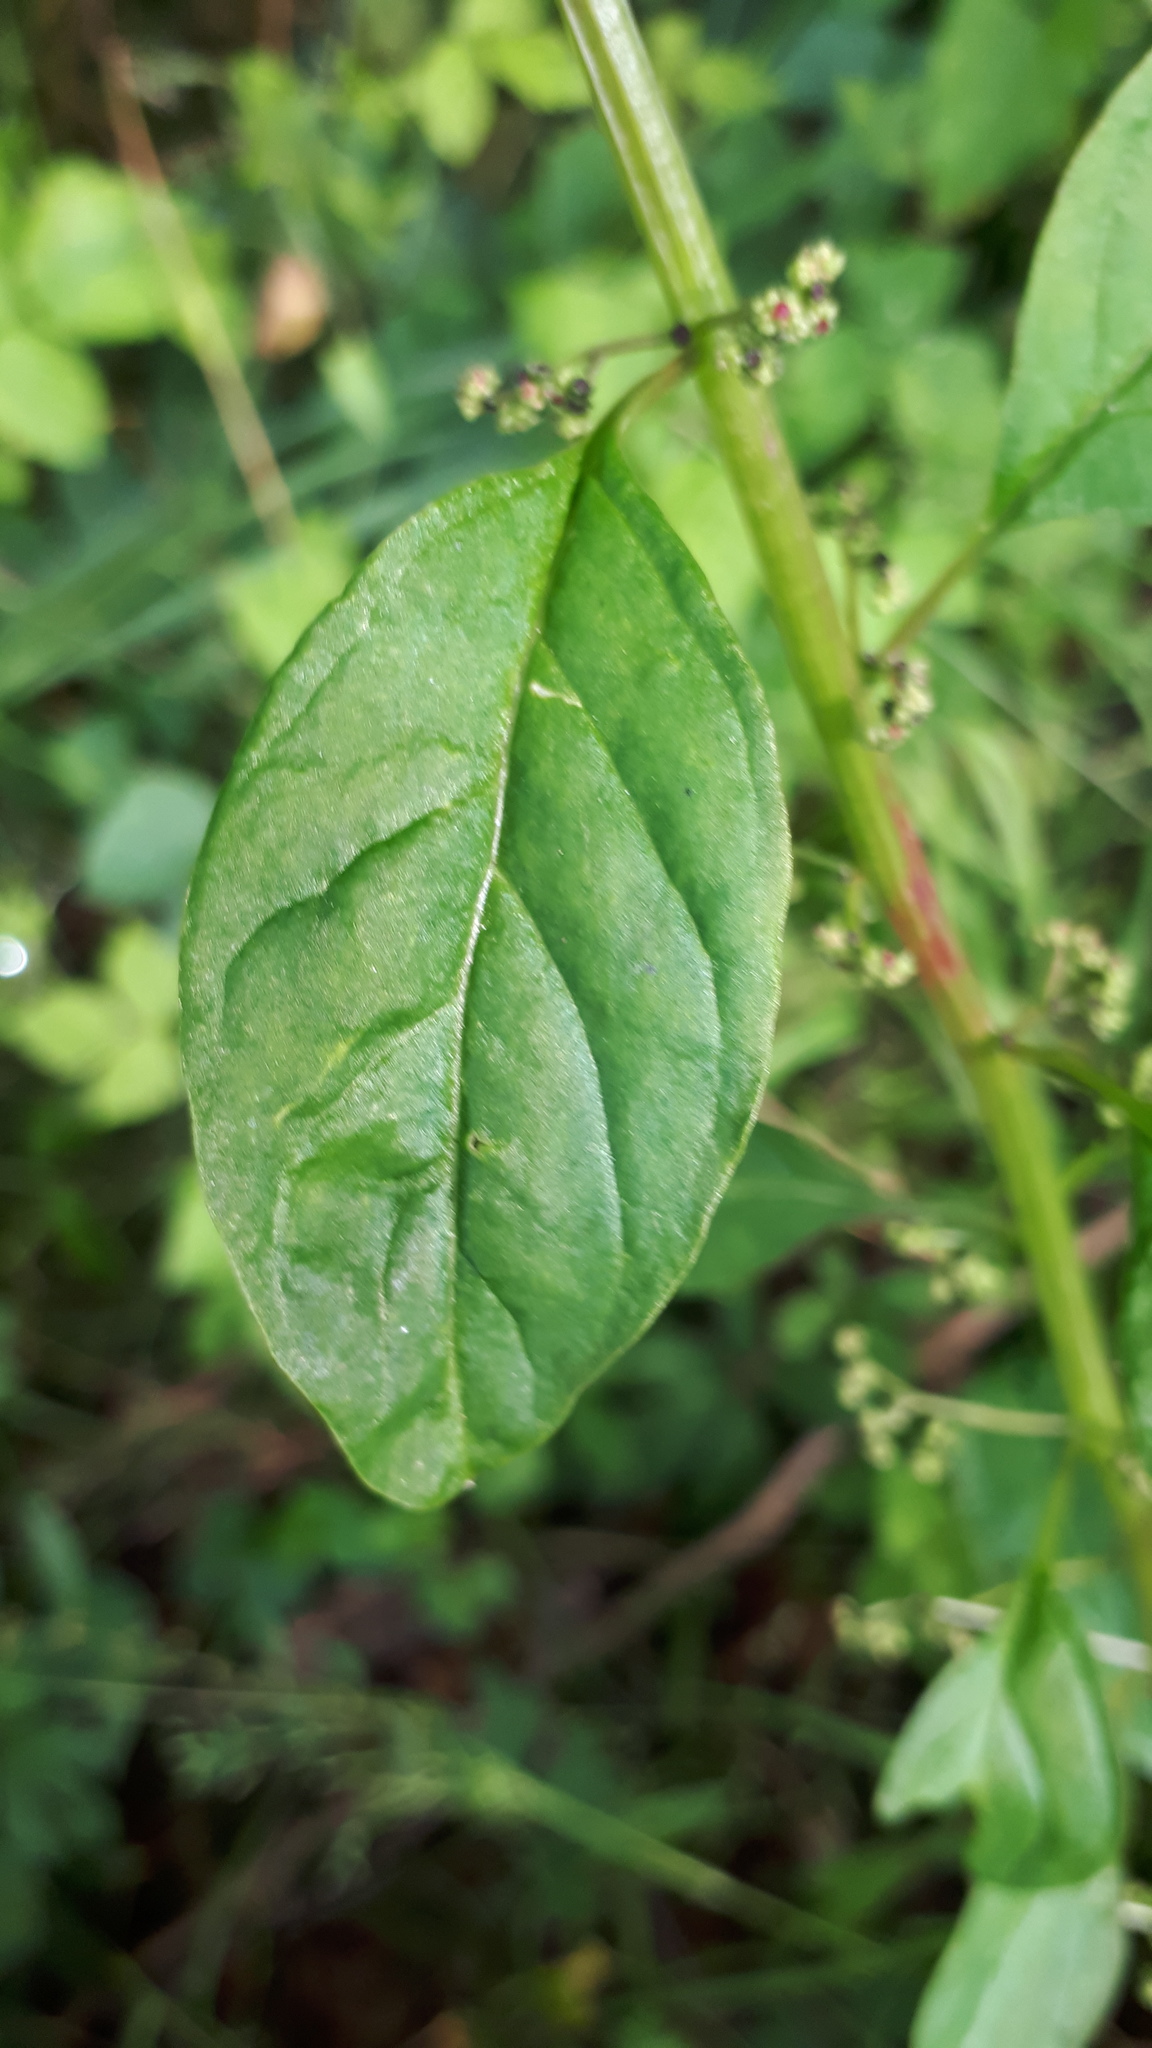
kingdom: Plantae
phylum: Tracheophyta
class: Magnoliopsida
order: Caryophyllales
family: Amaranthaceae
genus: Lipandra
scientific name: Lipandra polysperma
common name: Many-seed goosefoot
